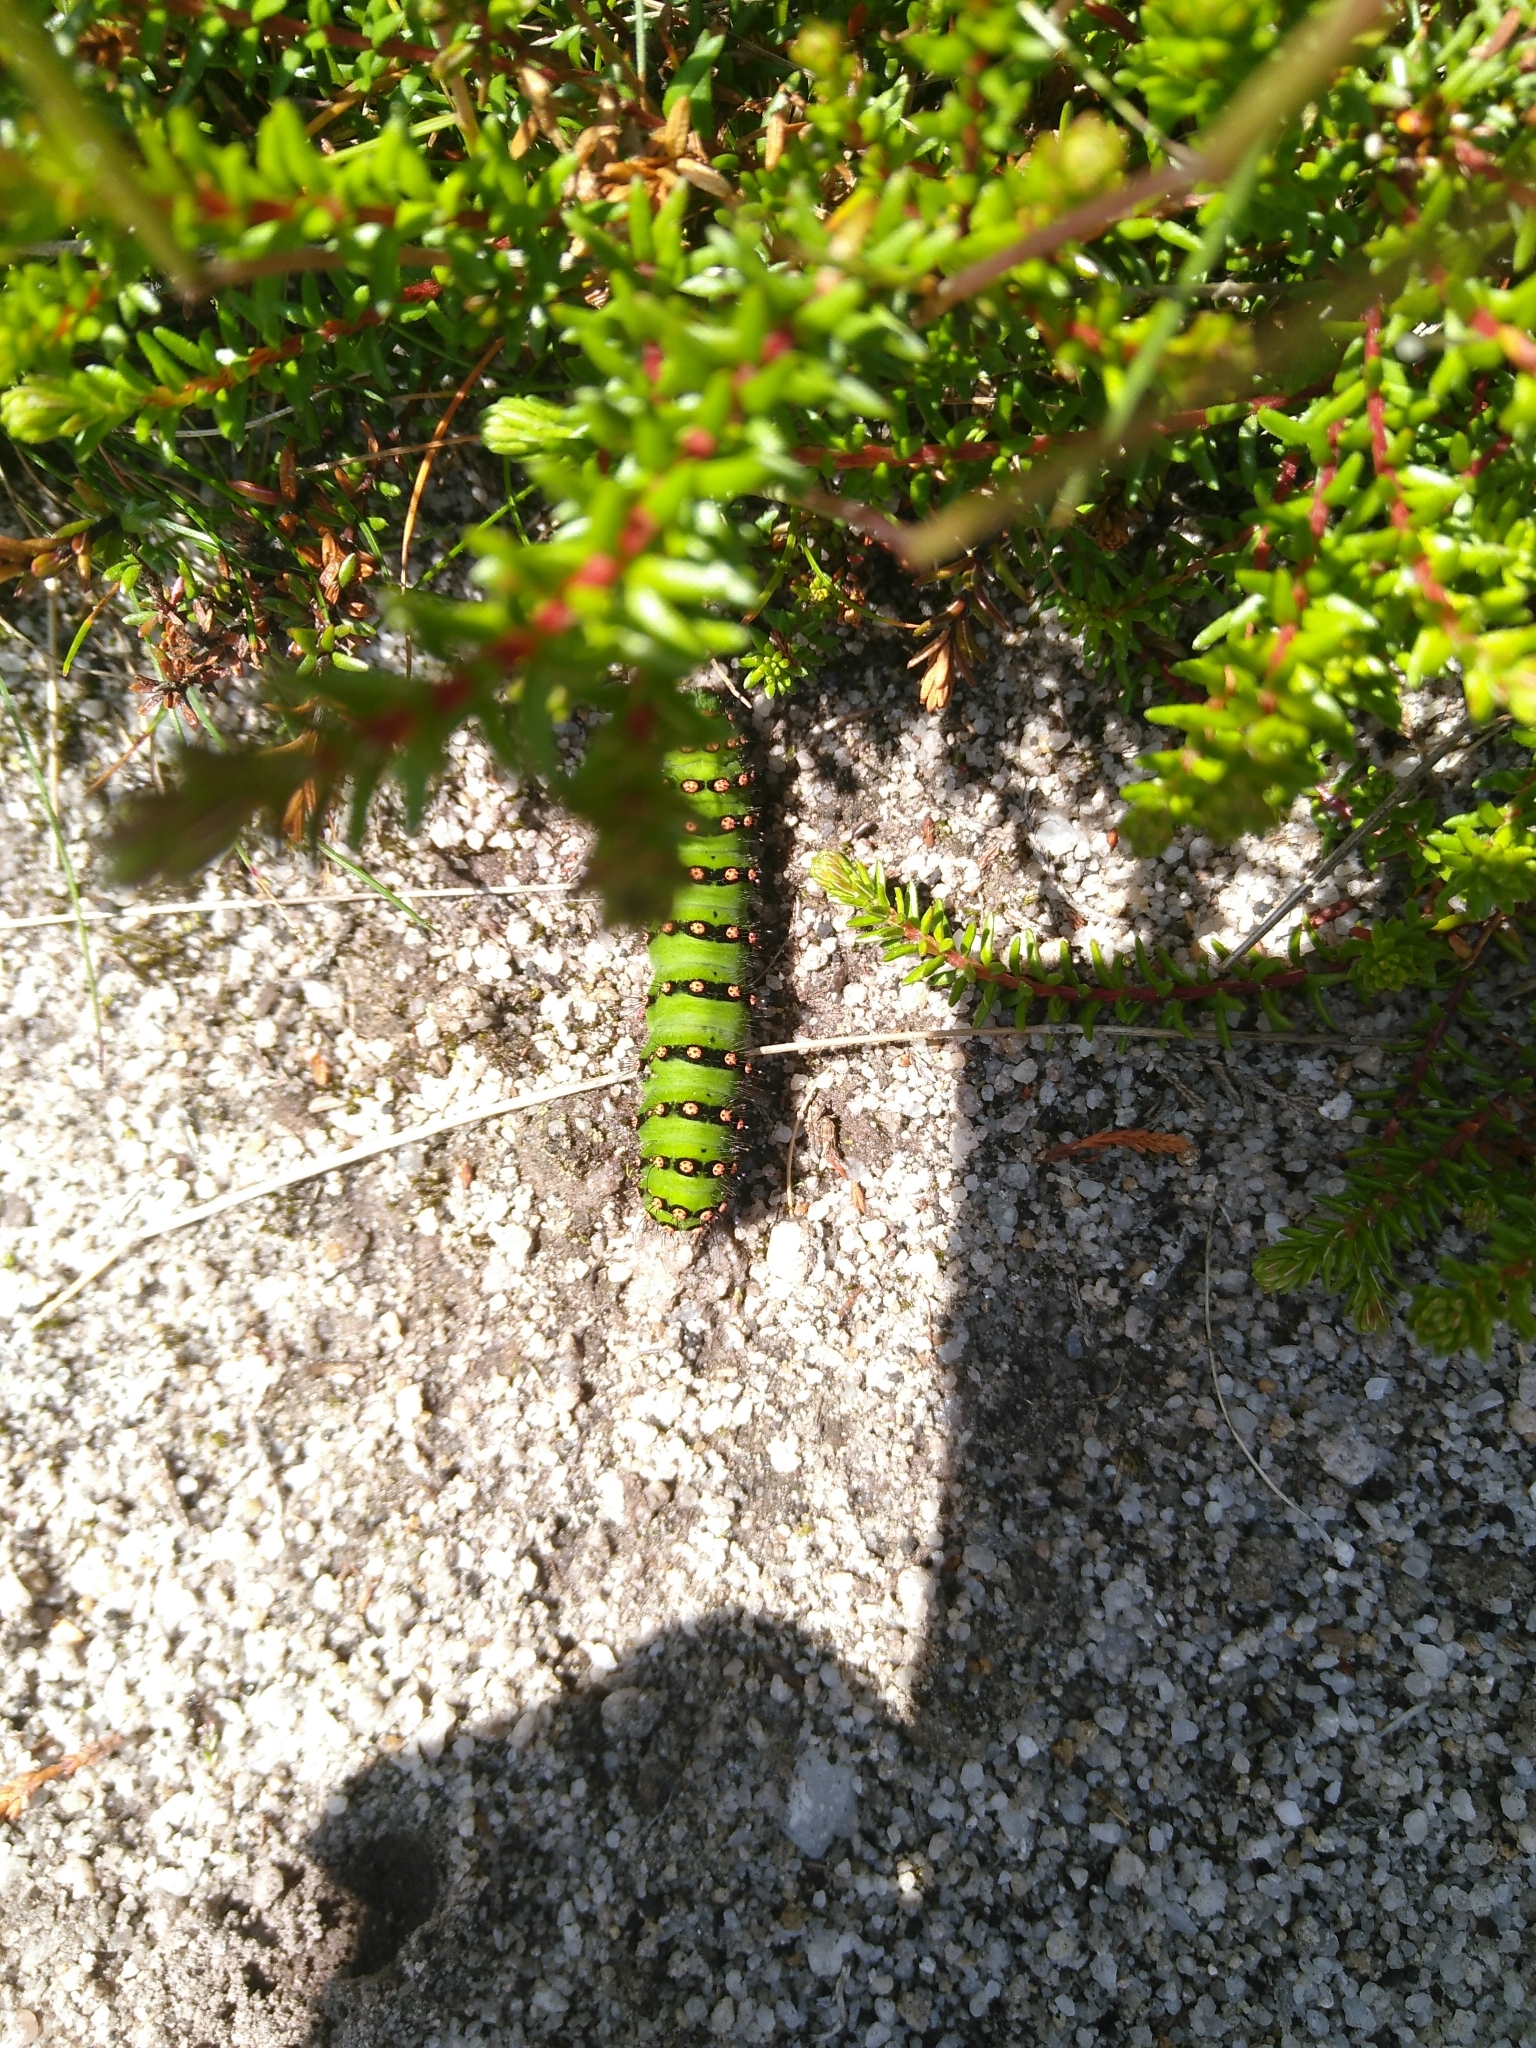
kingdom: Animalia
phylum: Arthropoda
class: Insecta
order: Lepidoptera
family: Saturniidae
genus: Saturnia
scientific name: Saturnia pavonia
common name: Emperor moth
